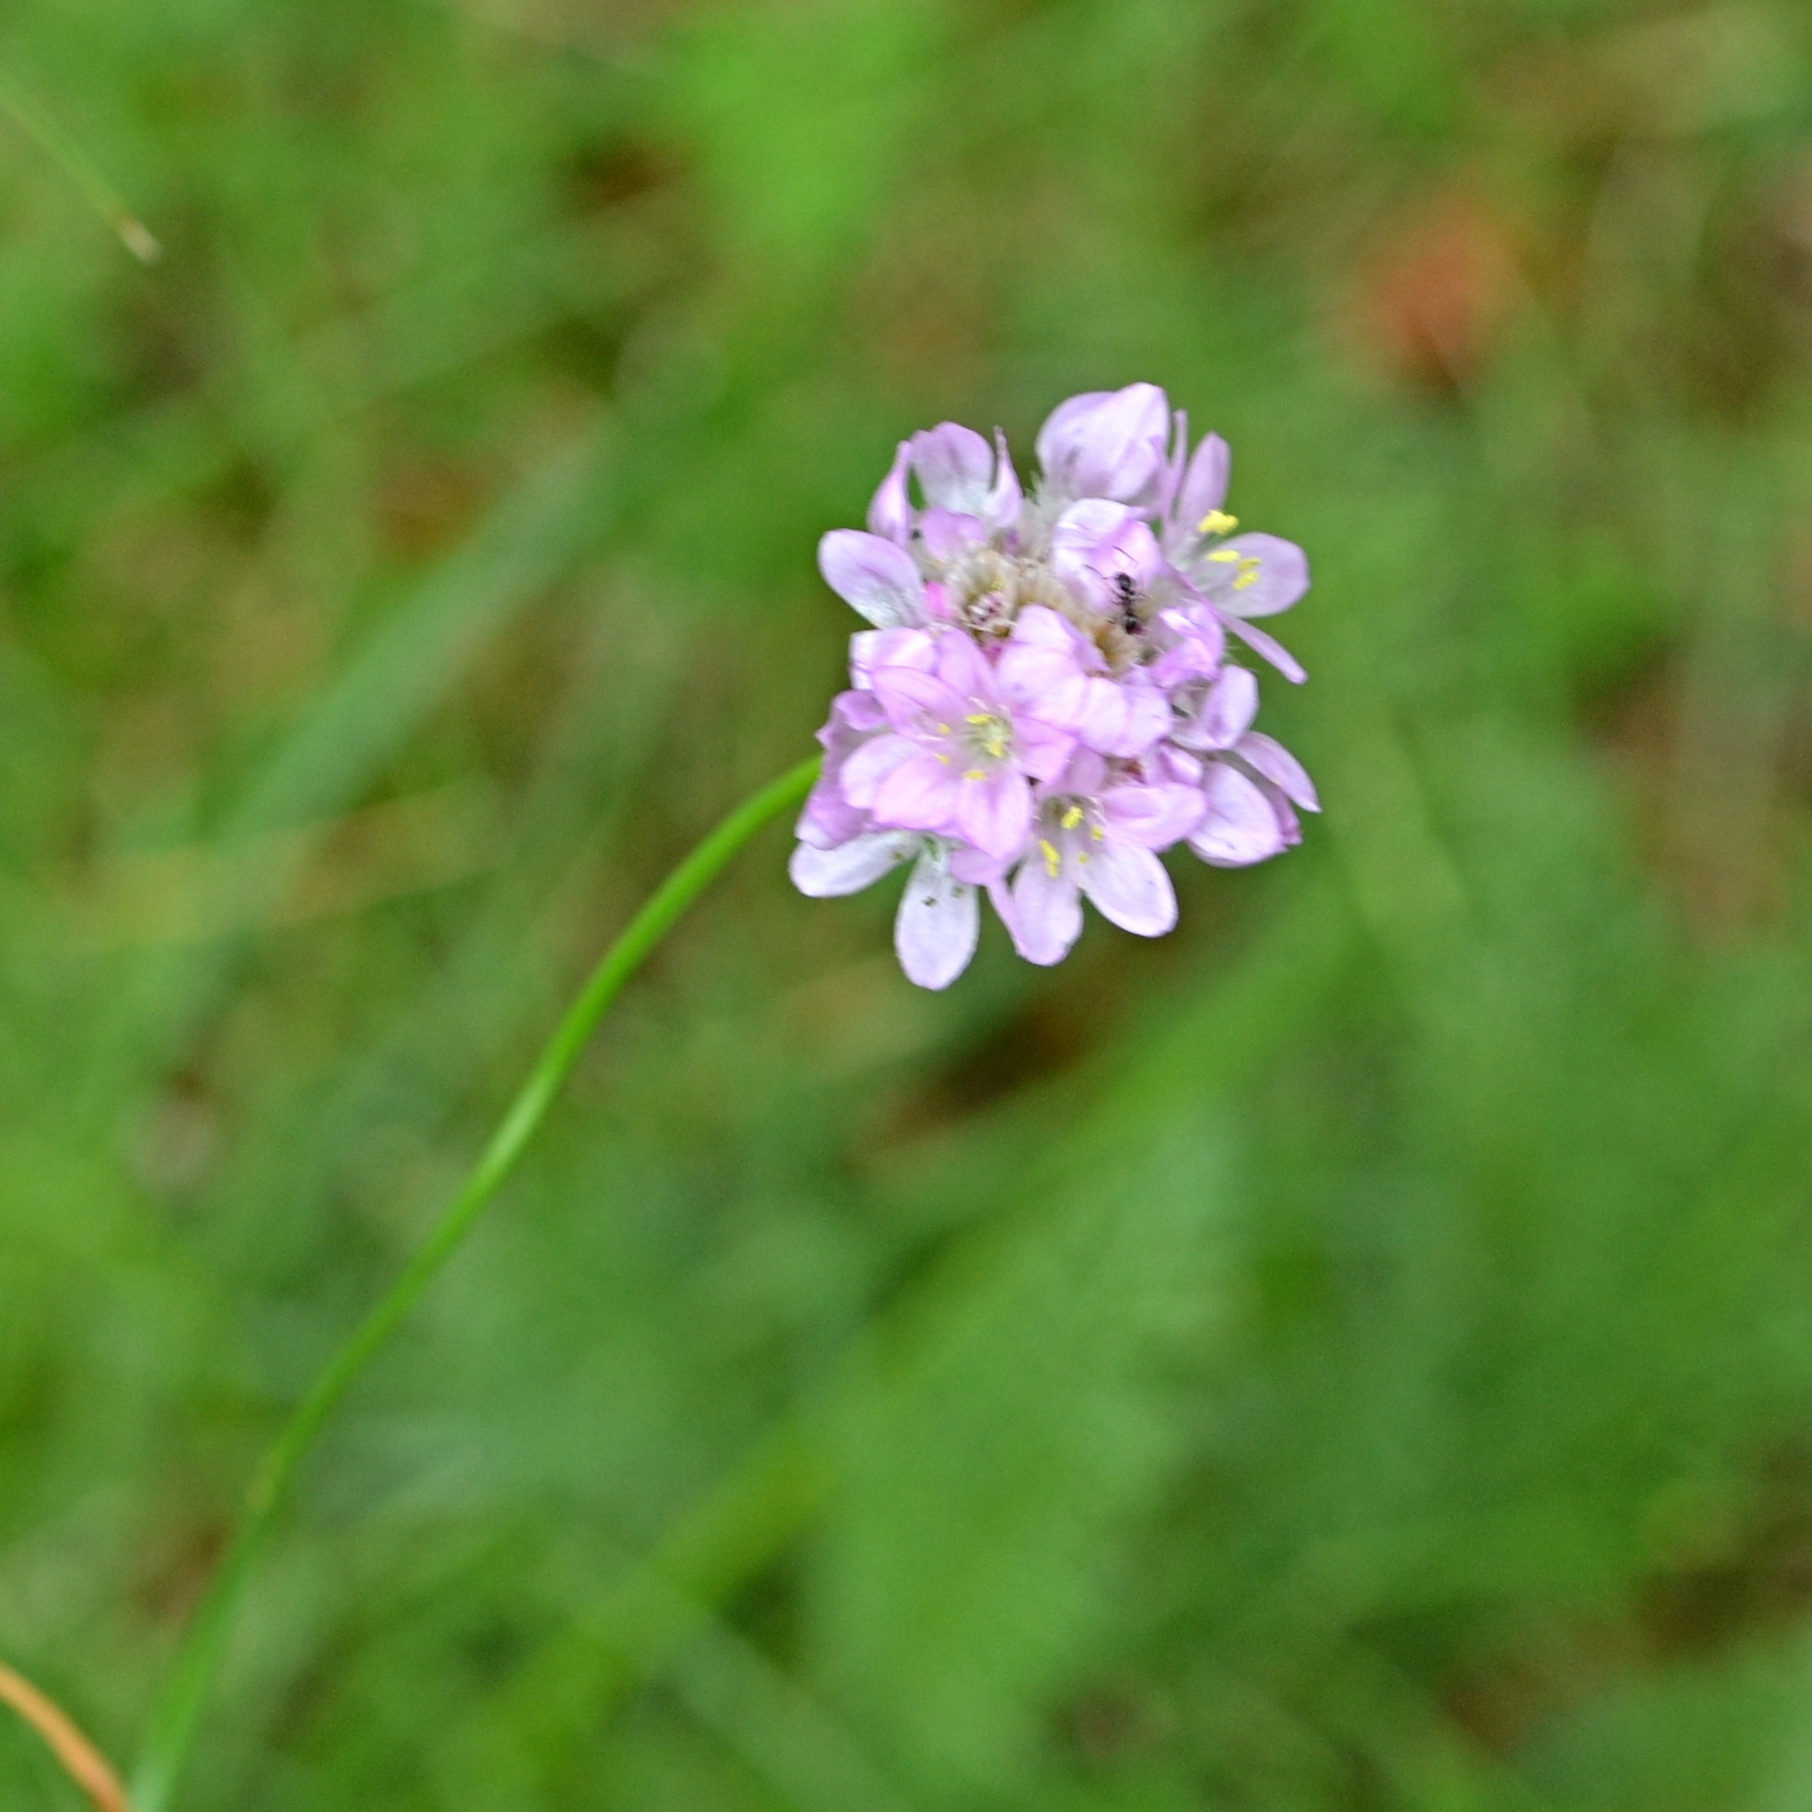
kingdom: Plantae
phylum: Tracheophyta
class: Magnoliopsida
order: Caryophyllales
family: Plumbaginaceae
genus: Armeria
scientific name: Armeria maritima
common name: Thrift
